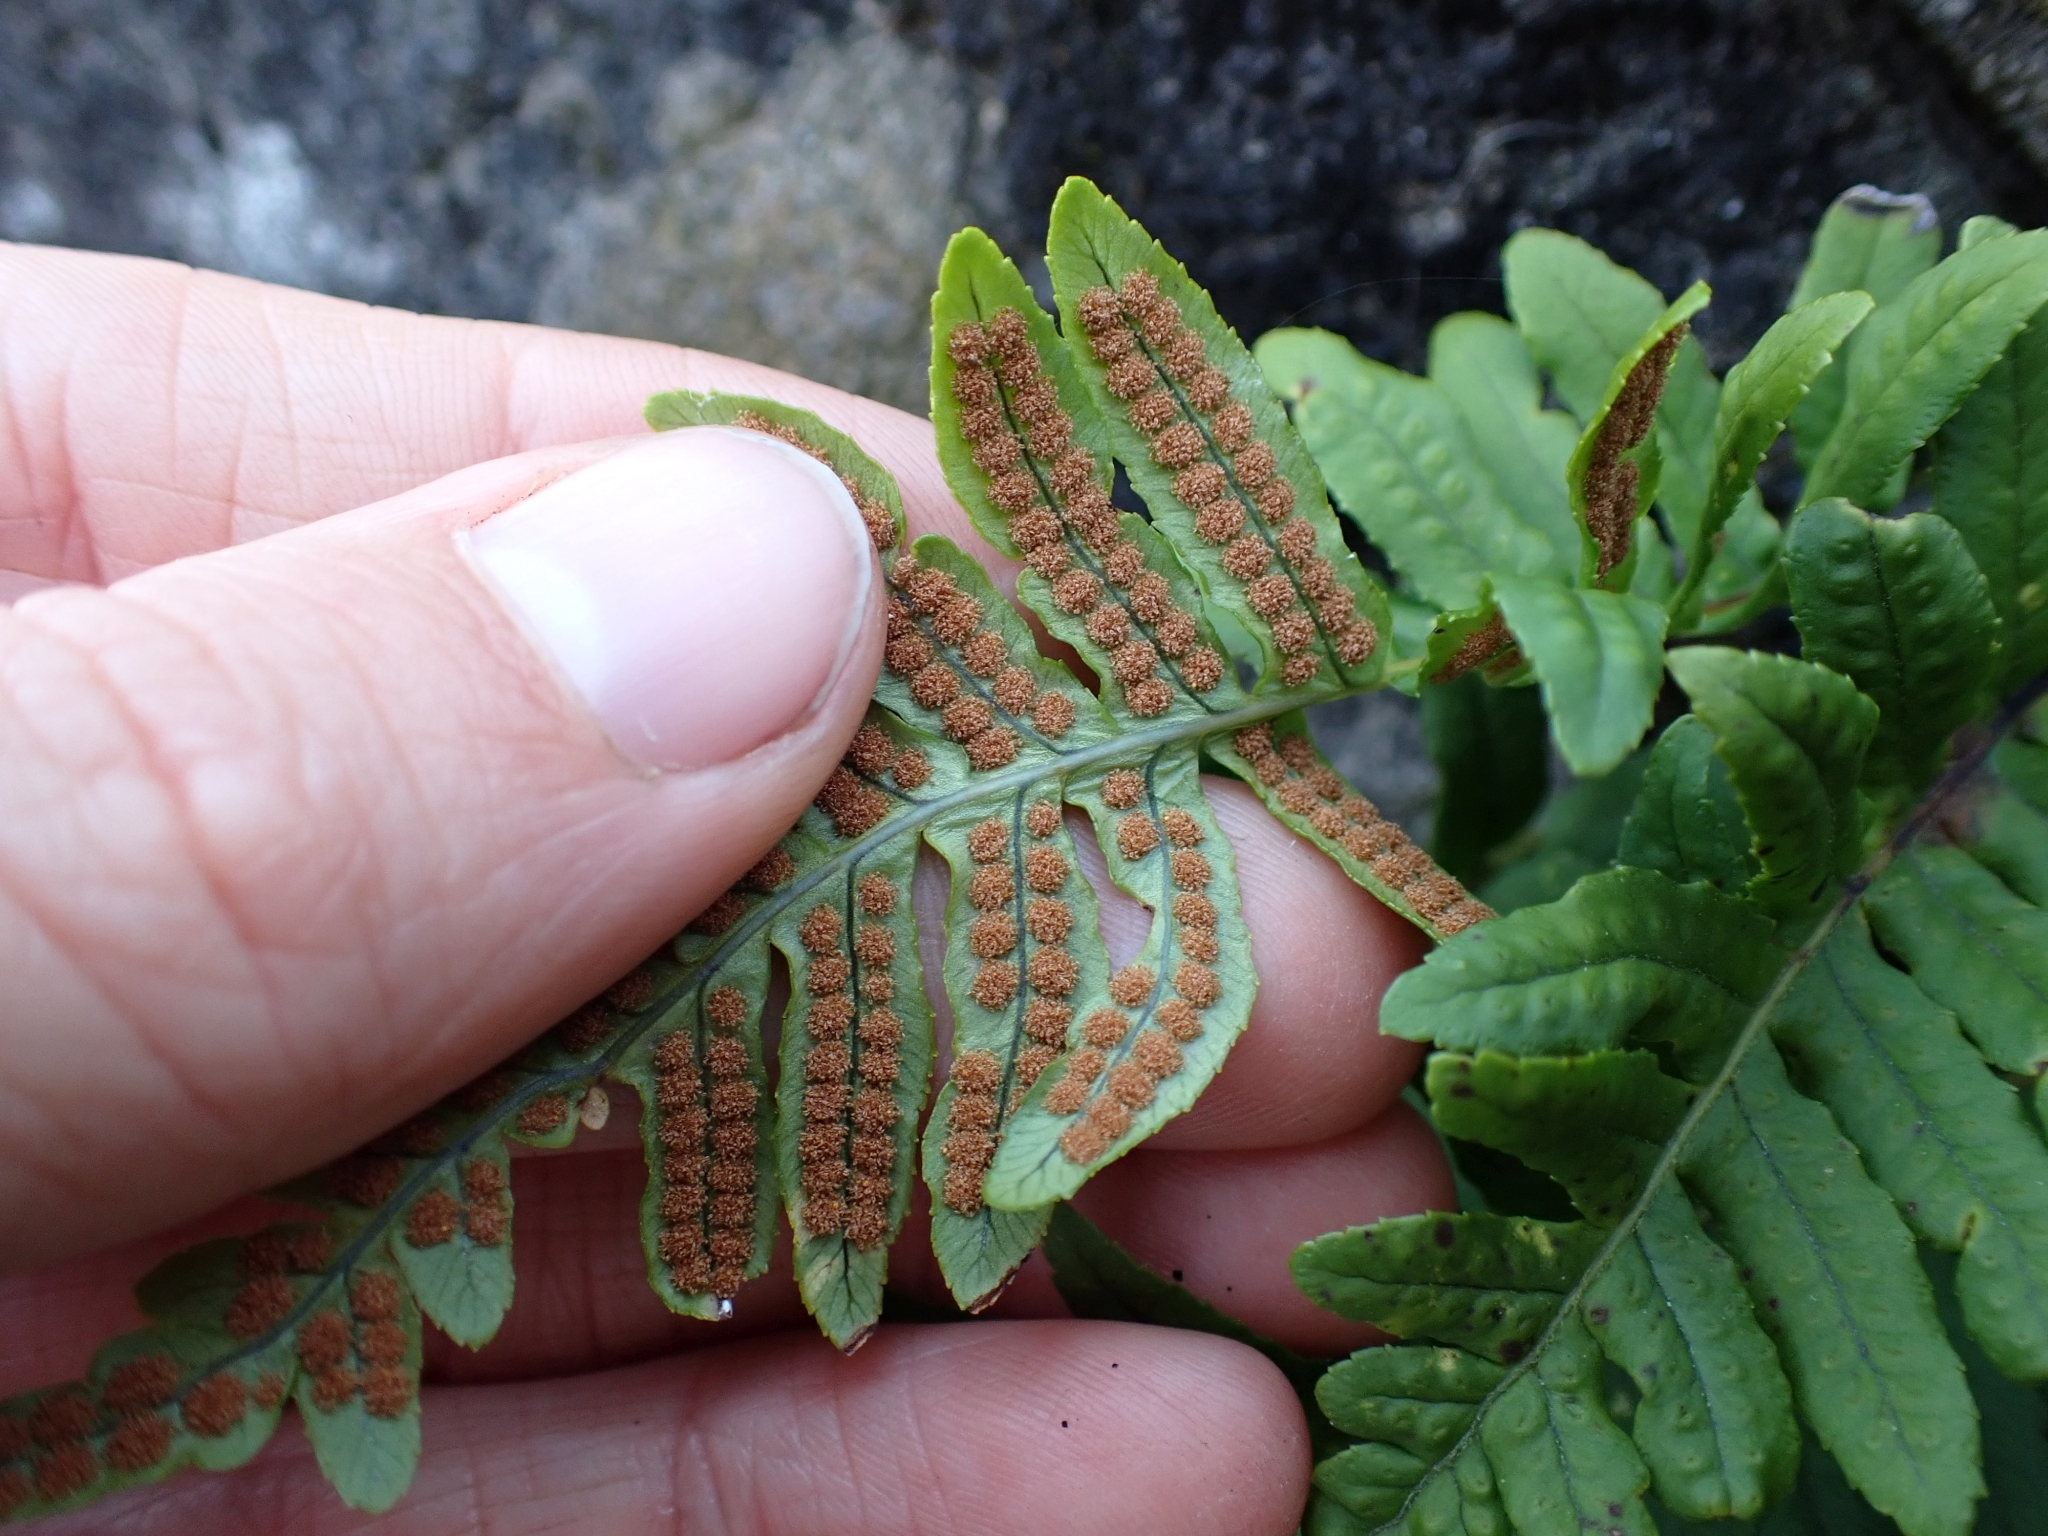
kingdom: Plantae
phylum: Tracheophyta
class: Polypodiopsida
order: Polypodiales
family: Polypodiaceae
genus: Polypodium
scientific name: Polypodium glycyrrhiza
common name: Licorice fern
